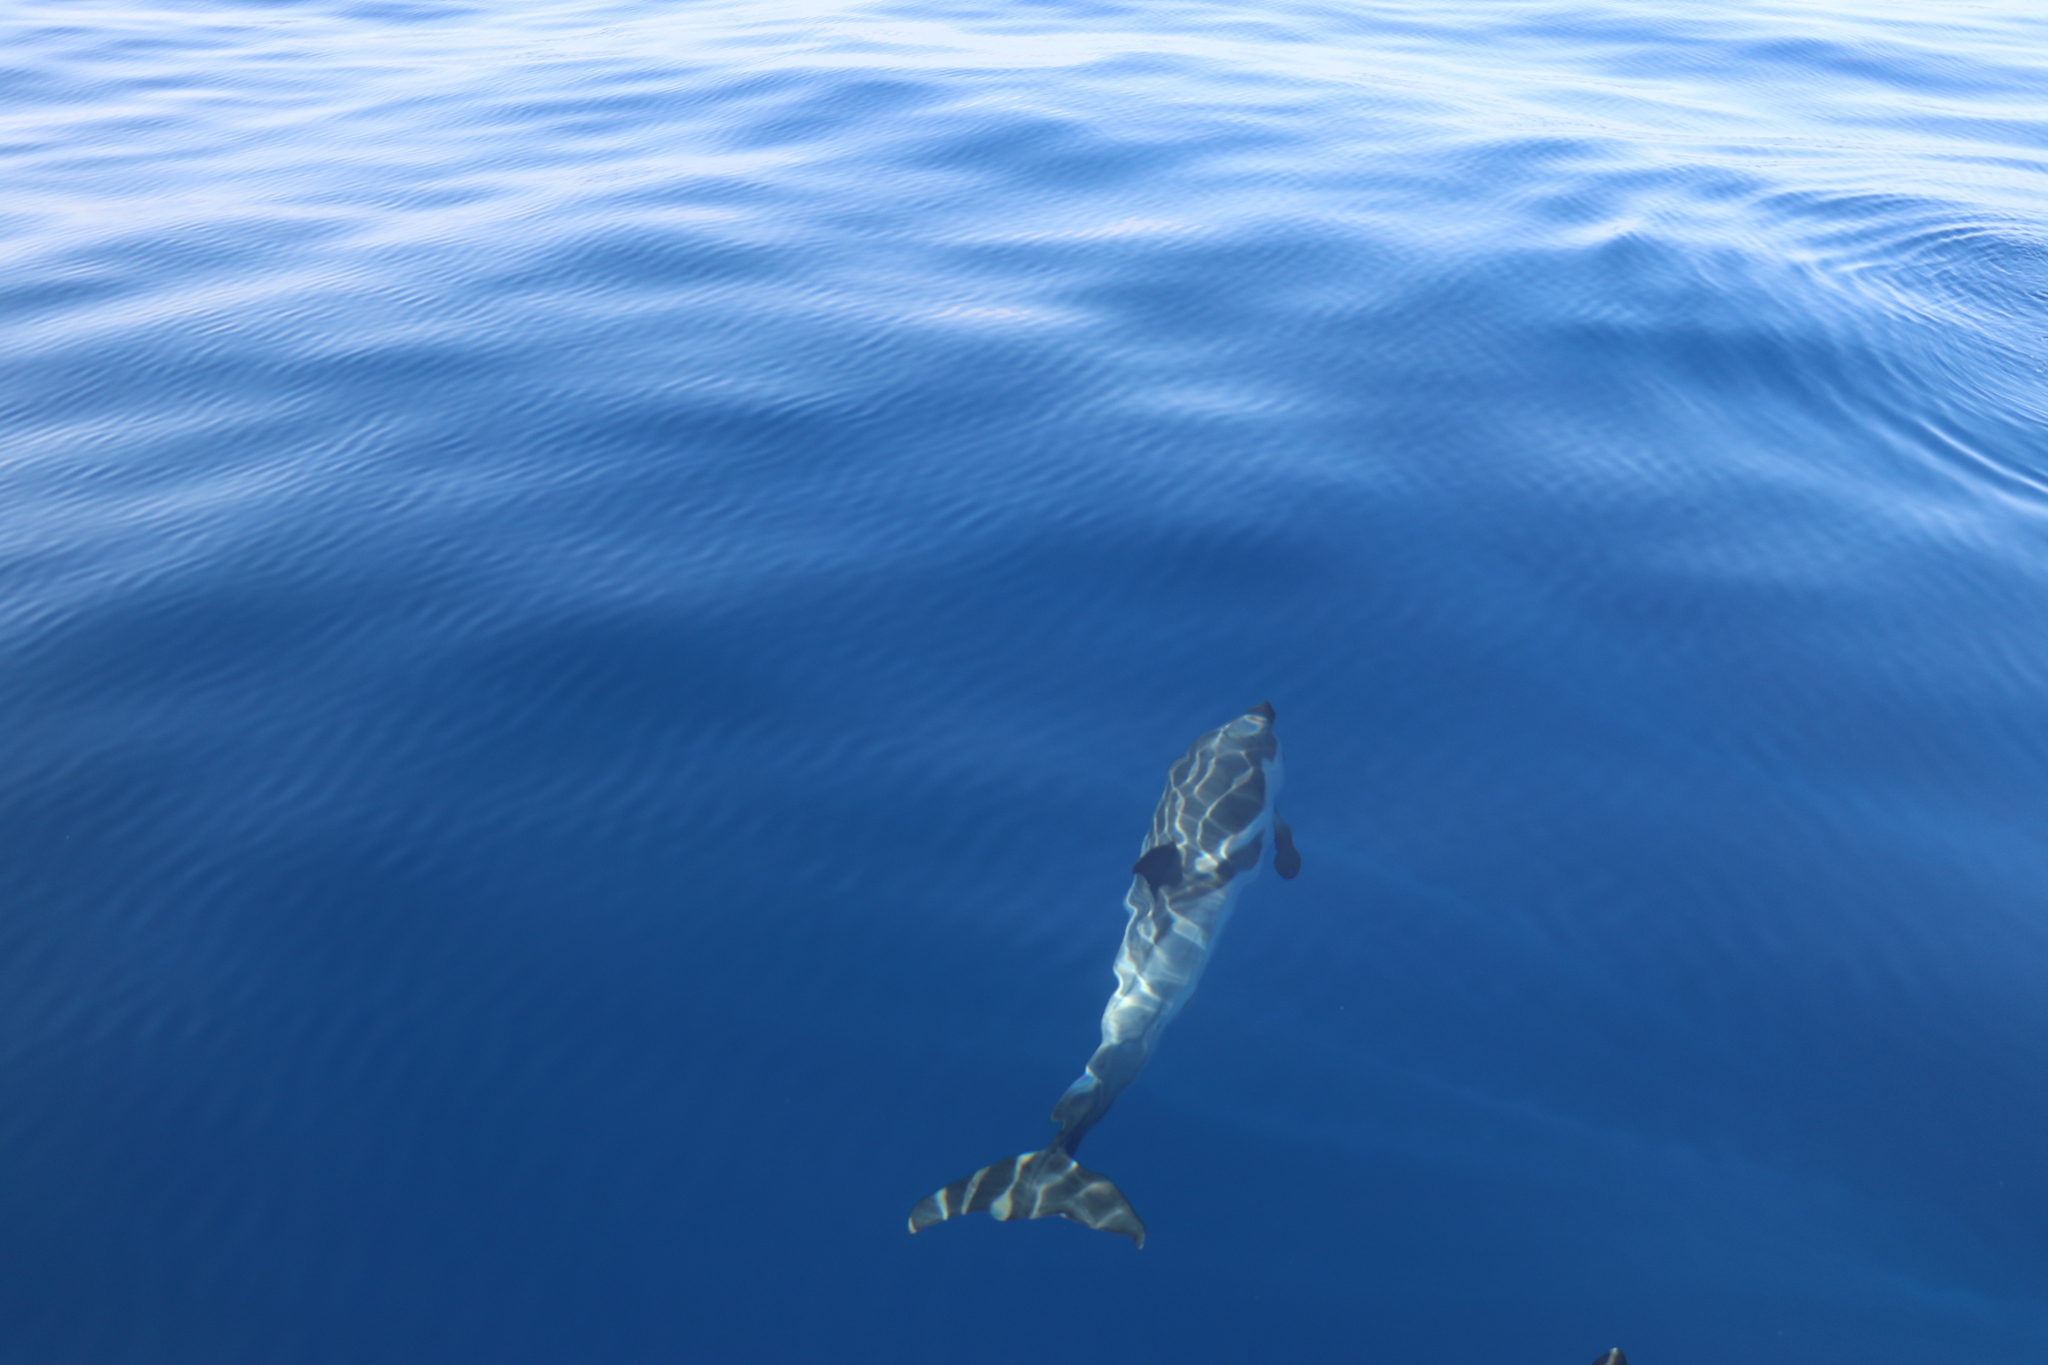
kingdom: Animalia
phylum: Chordata
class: Mammalia
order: Cetacea
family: Delphinidae
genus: Stenella
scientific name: Stenella coeruleoalba
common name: Striped dolphin
